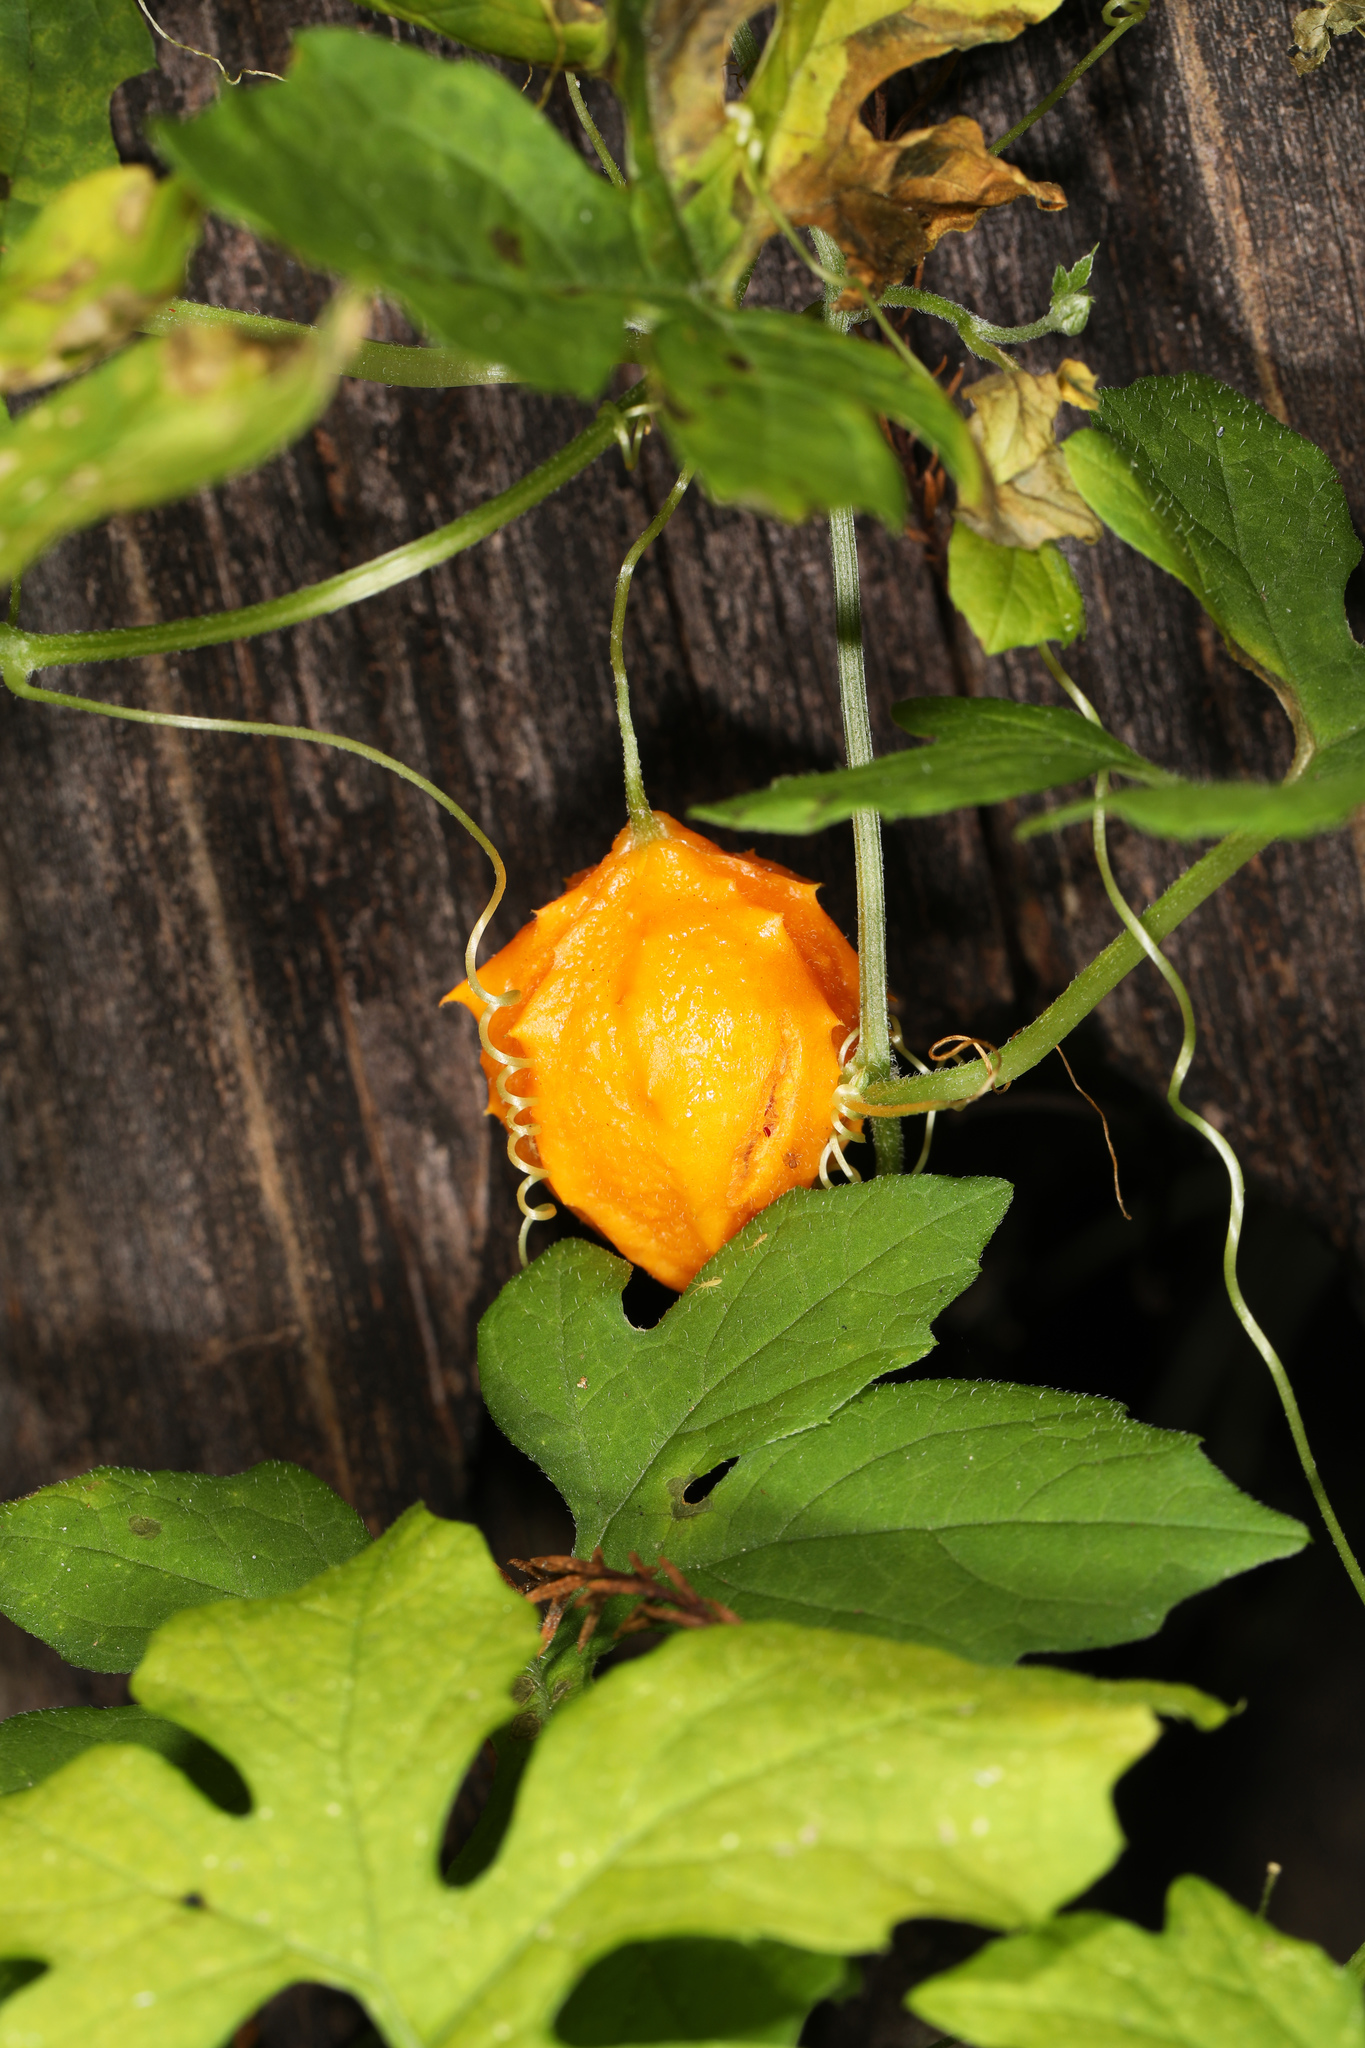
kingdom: Plantae
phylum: Tracheophyta
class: Magnoliopsida
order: Cucurbitales
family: Cucurbitaceae
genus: Momordica
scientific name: Momordica charantia
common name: Balsampear
